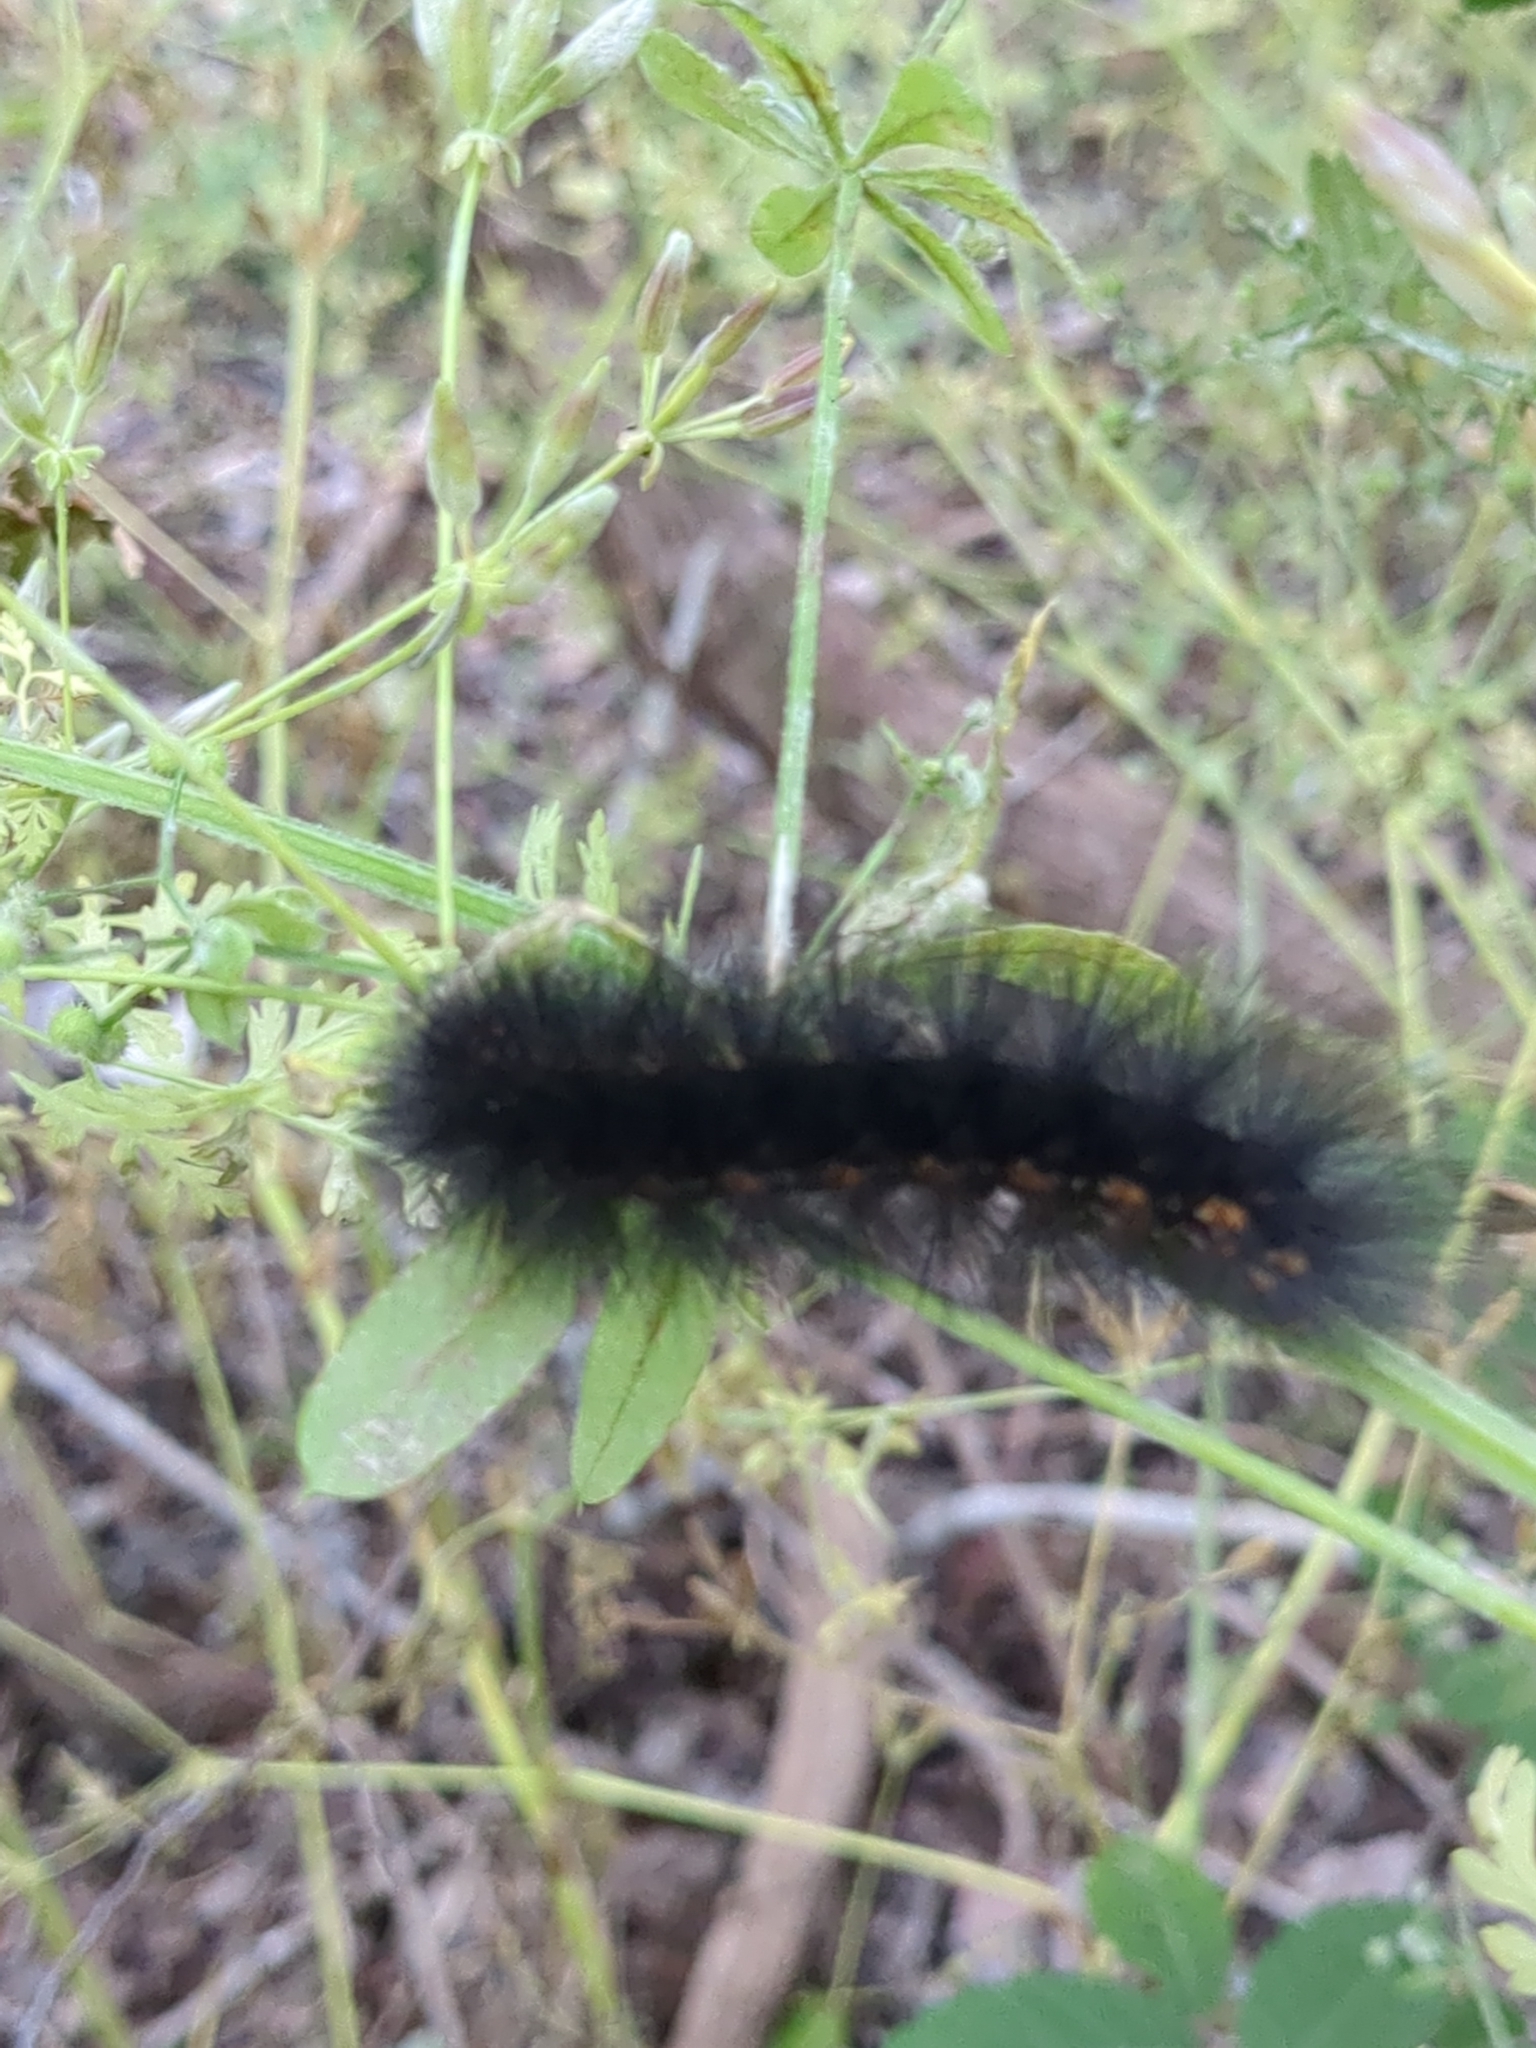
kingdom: Animalia
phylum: Arthropoda
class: Insecta
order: Lepidoptera
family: Erebidae
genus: Estigmene
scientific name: Estigmene acrea
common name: Salt marsh moth
